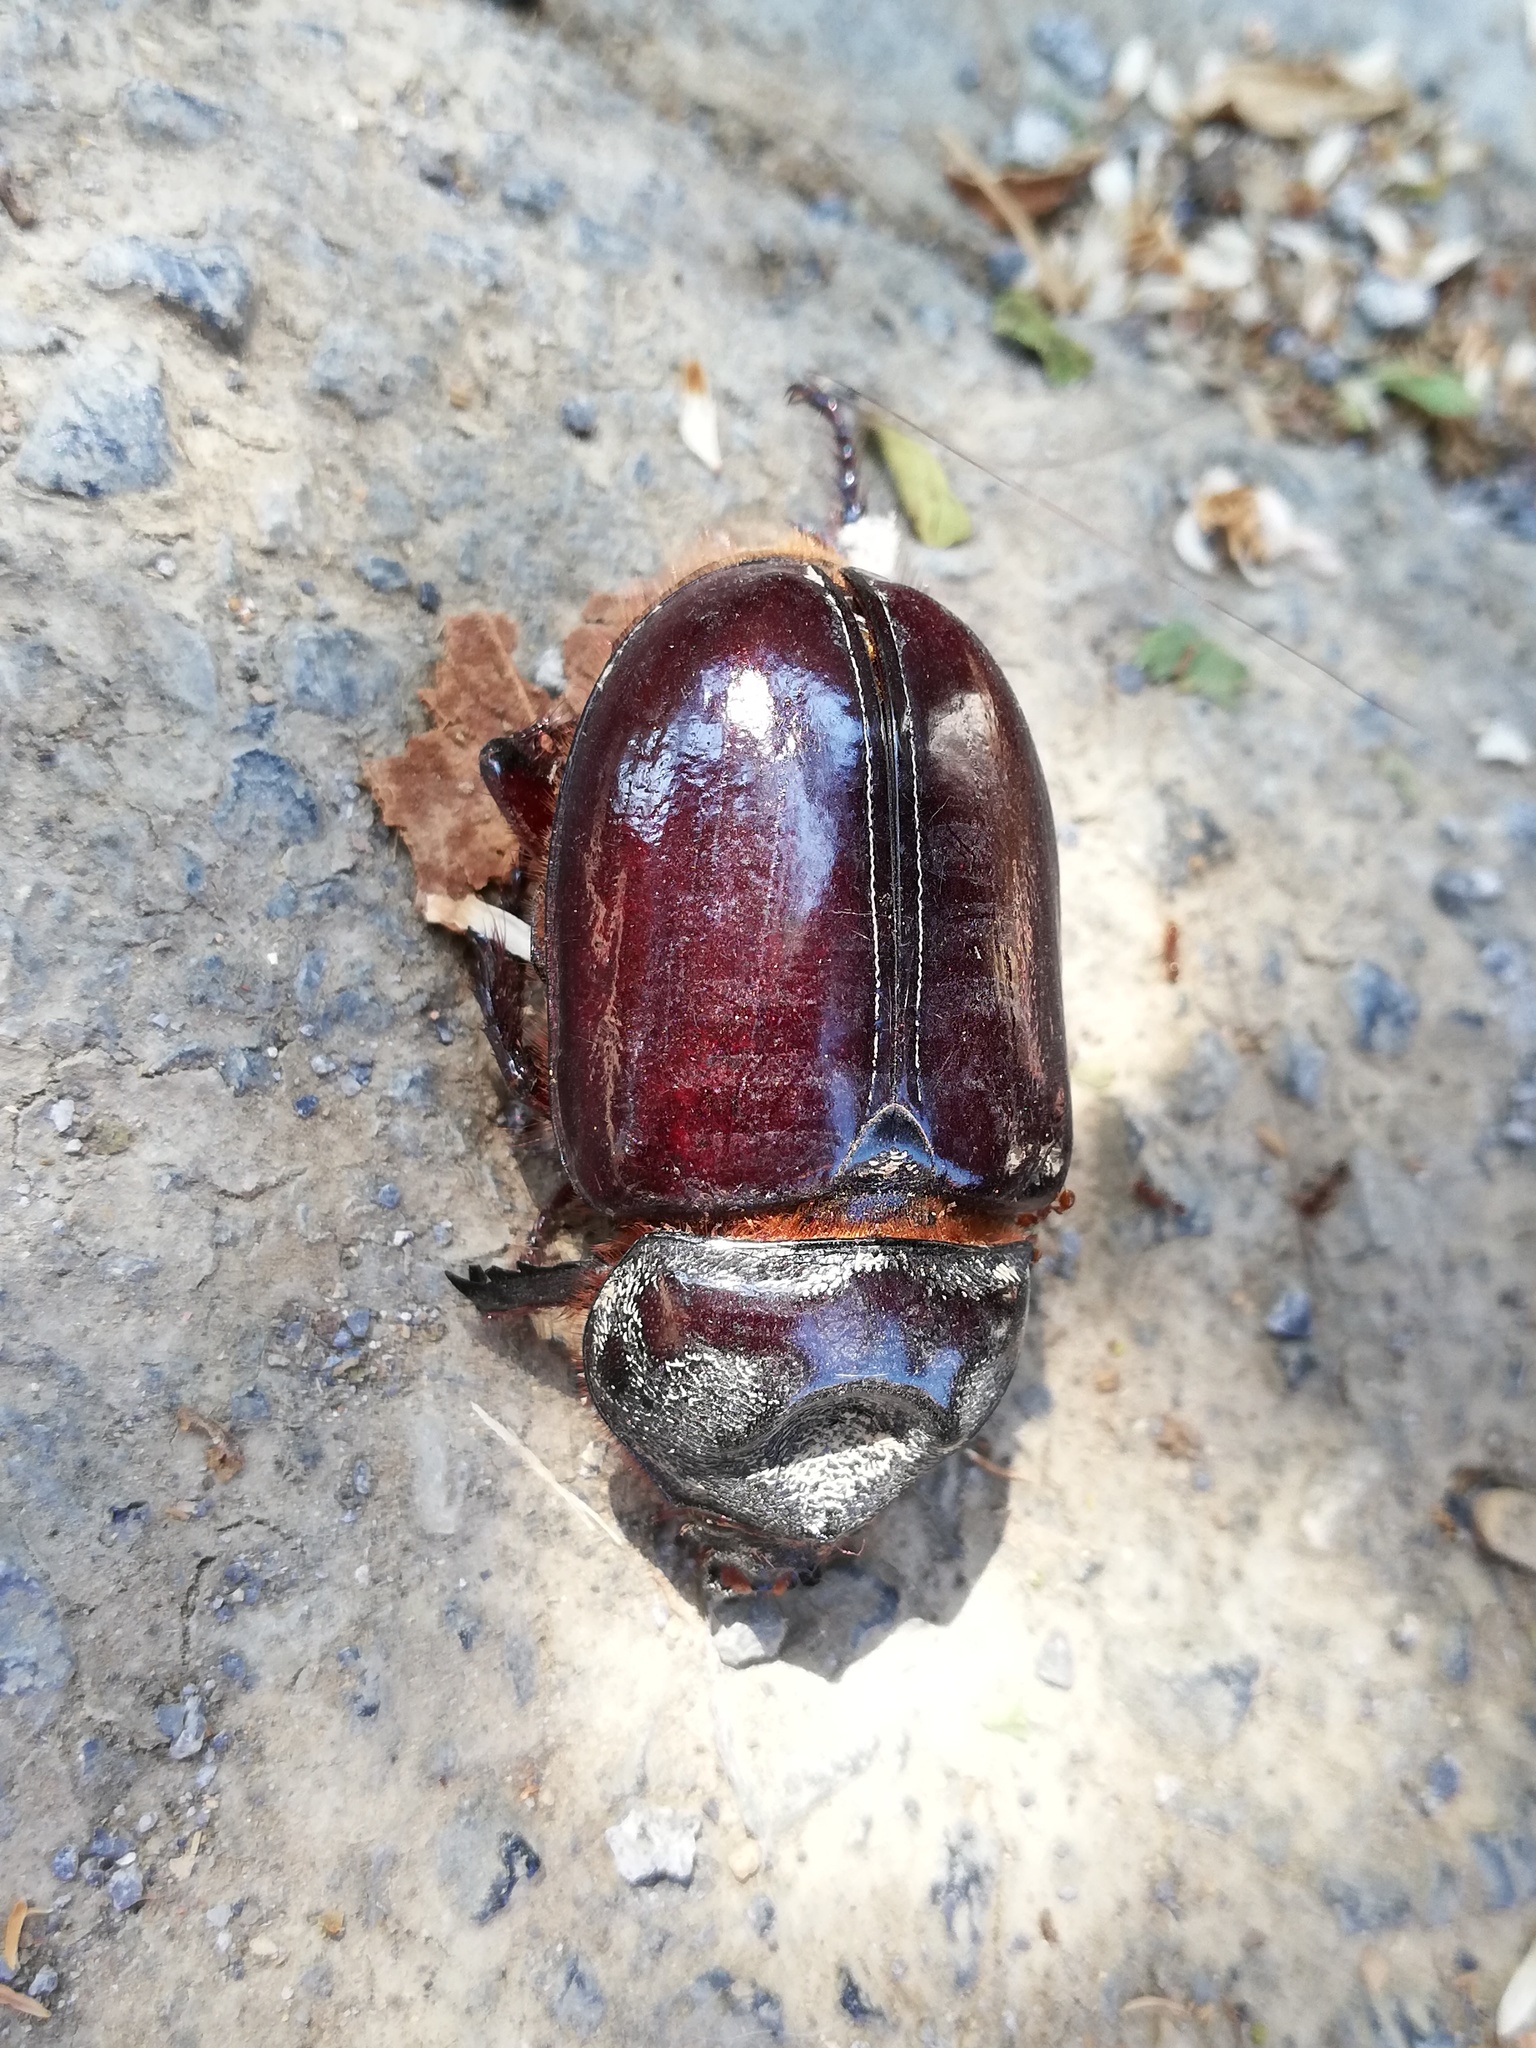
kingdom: Animalia
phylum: Arthropoda
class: Insecta
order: Coleoptera
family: Scarabaeidae
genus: Strategus
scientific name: Strategus aloeus
